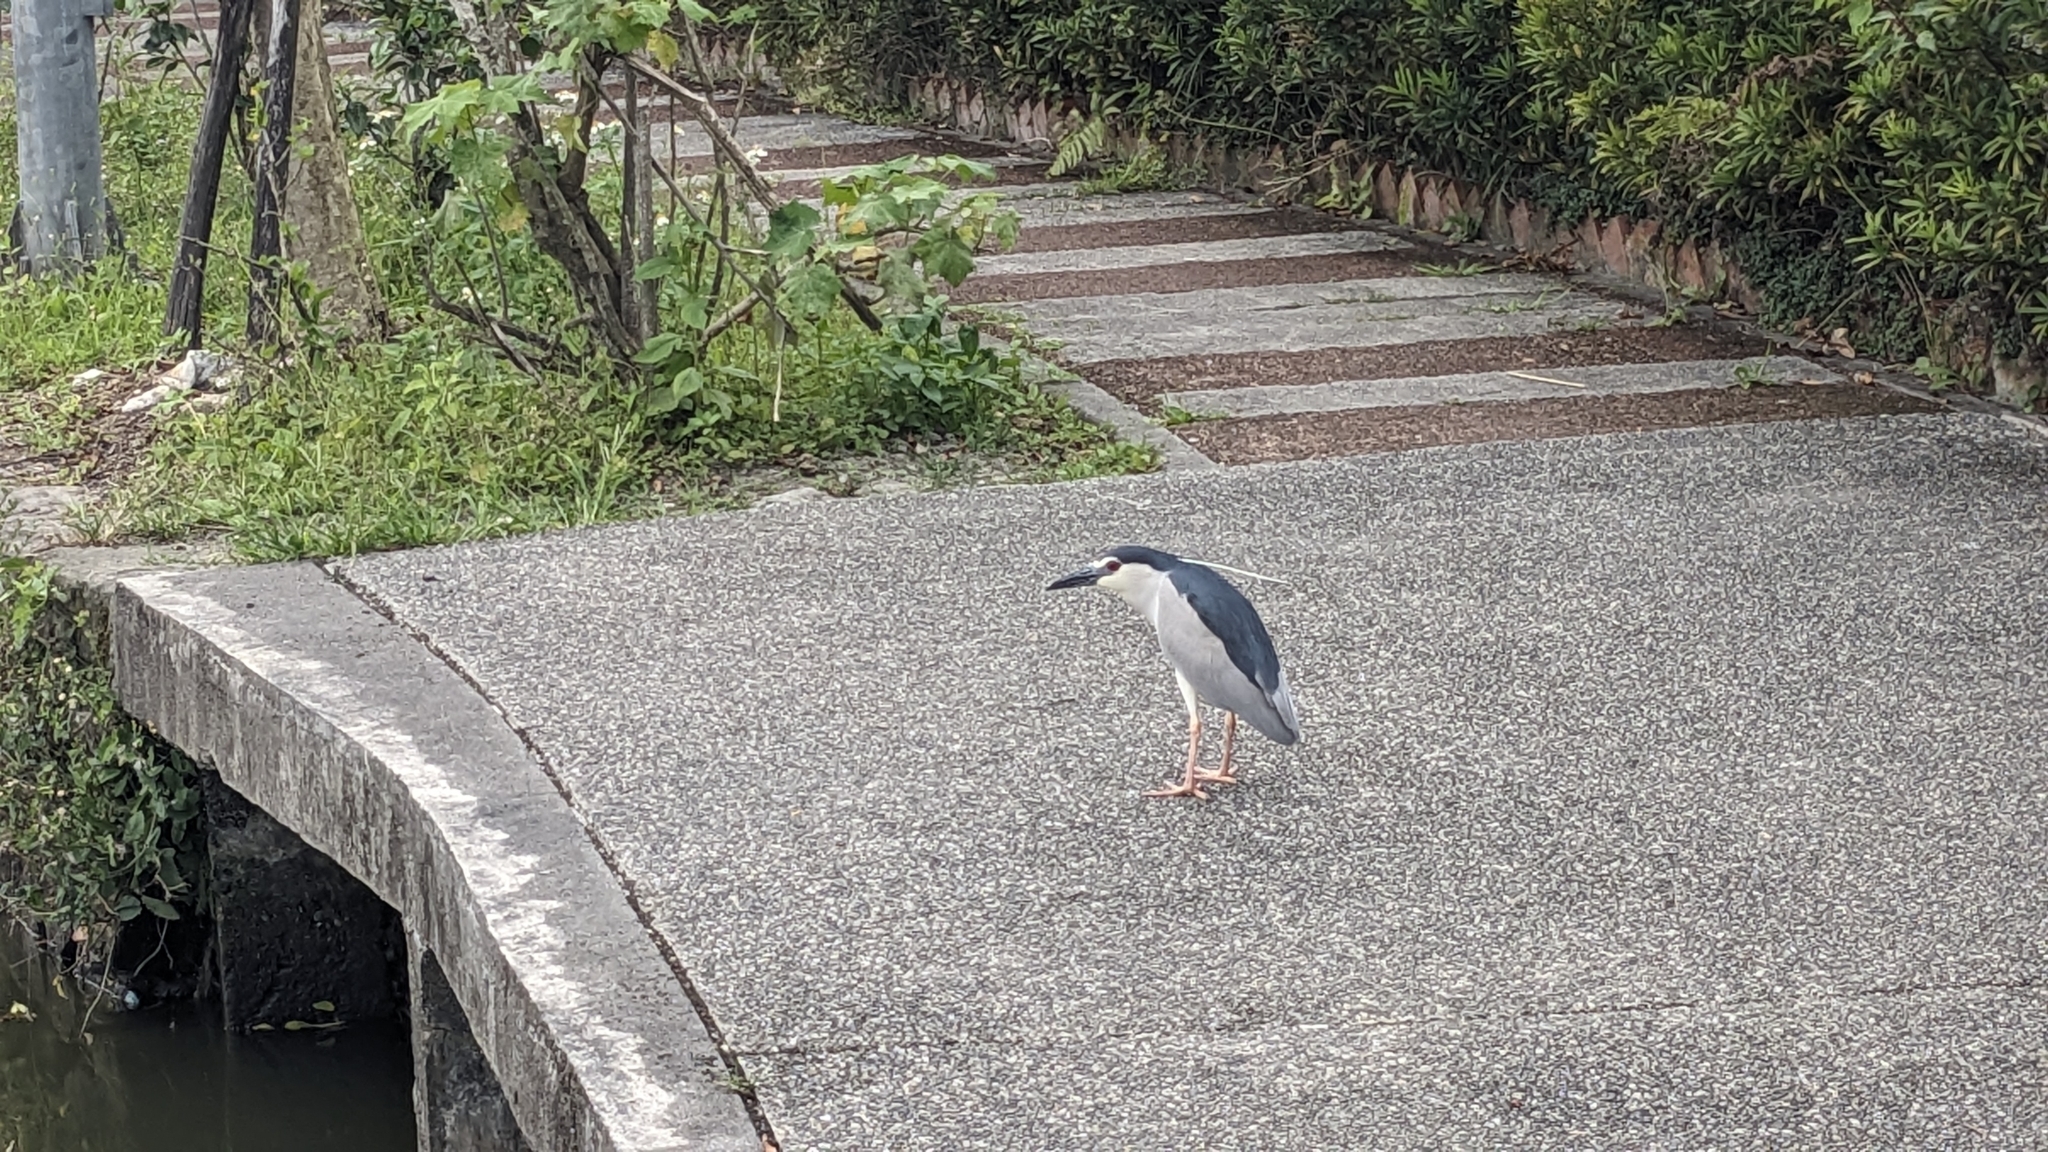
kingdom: Animalia
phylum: Chordata
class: Aves
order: Pelecaniformes
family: Ardeidae
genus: Nycticorax
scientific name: Nycticorax nycticorax
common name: Black-crowned night heron
